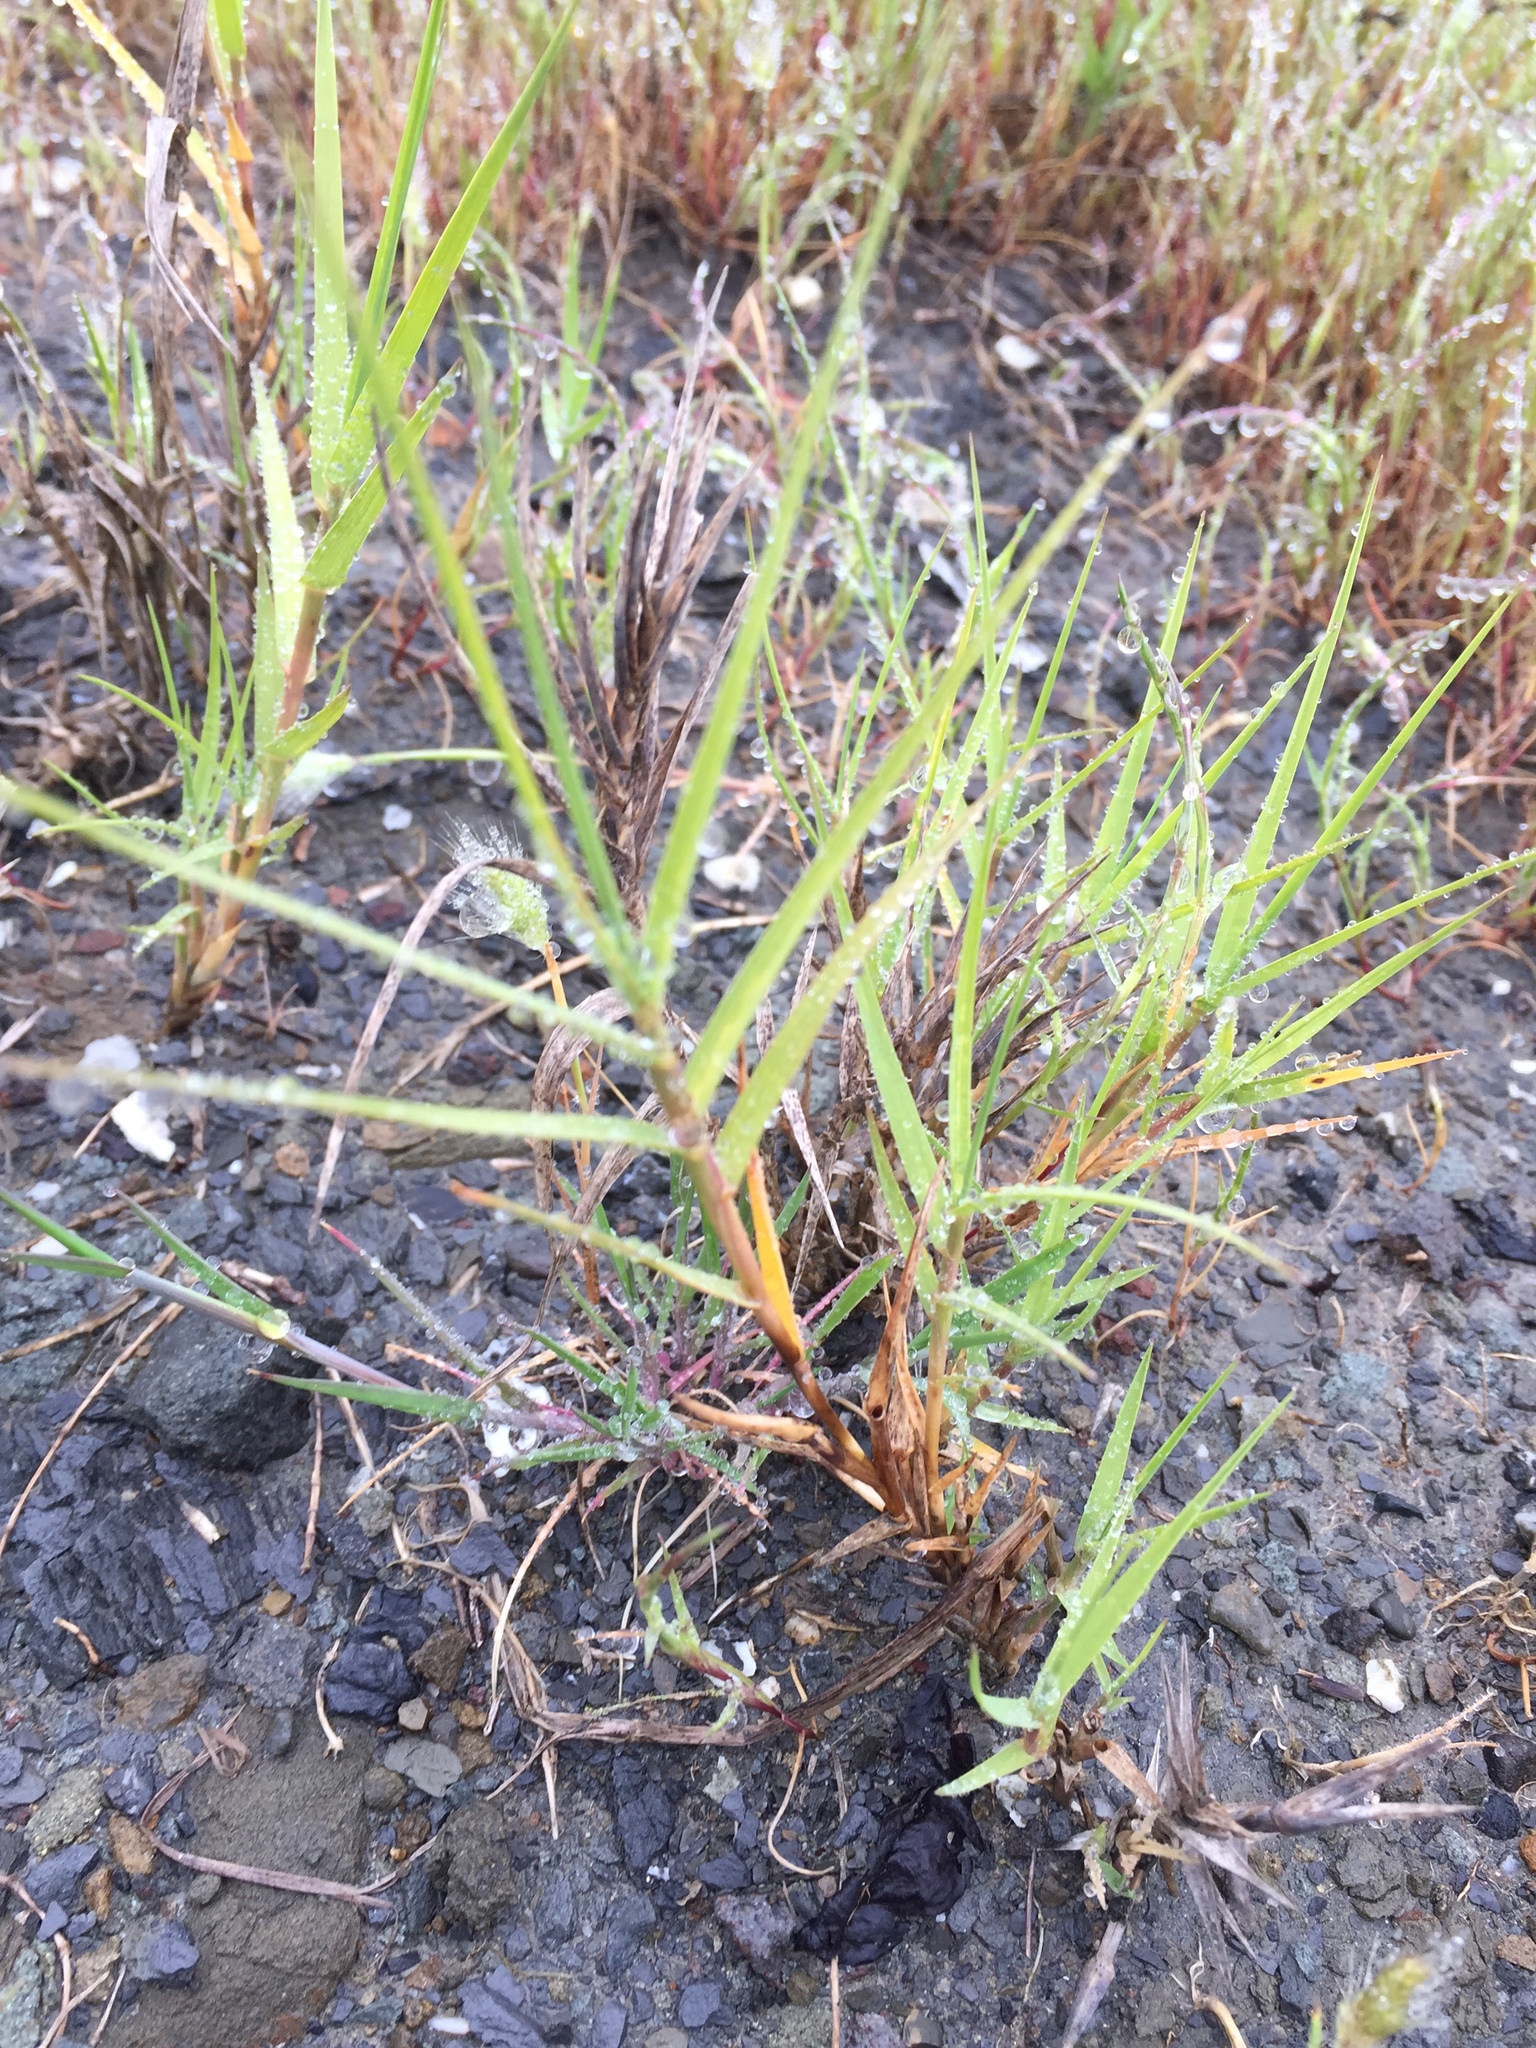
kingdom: Plantae
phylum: Tracheophyta
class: Liliopsida
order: Poales
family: Poaceae
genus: Distichlis
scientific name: Distichlis spicata
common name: Saltgrass
